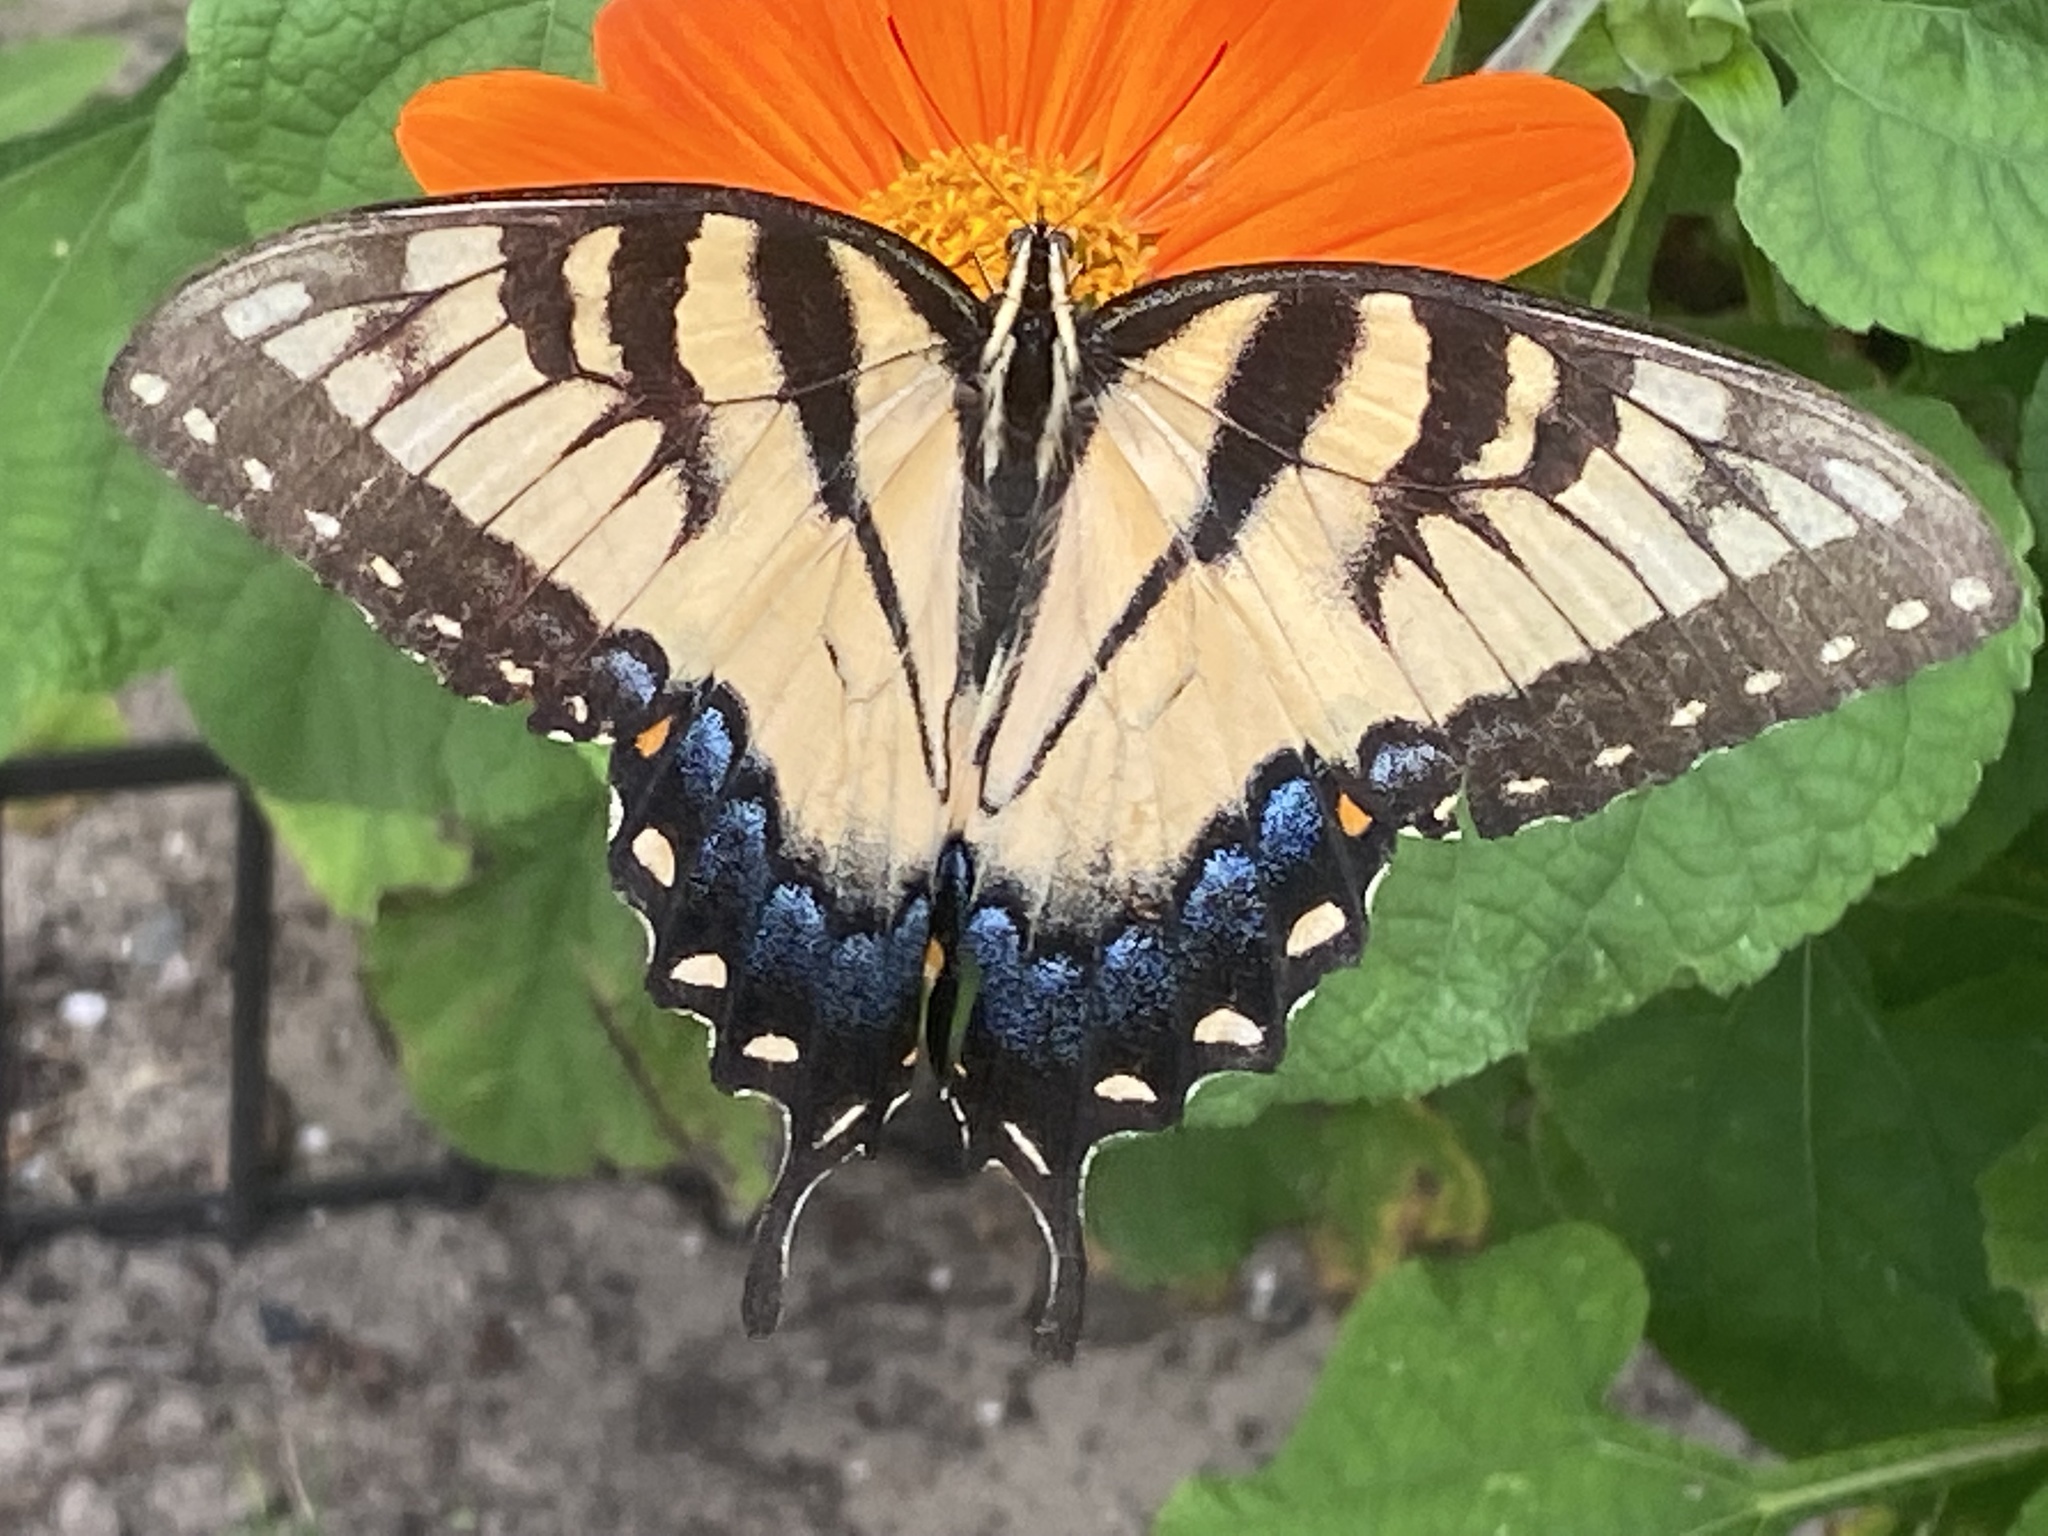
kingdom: Animalia
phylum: Arthropoda
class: Insecta
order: Lepidoptera
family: Papilionidae
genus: Papilio
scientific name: Papilio glaucus
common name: Tiger swallowtail
